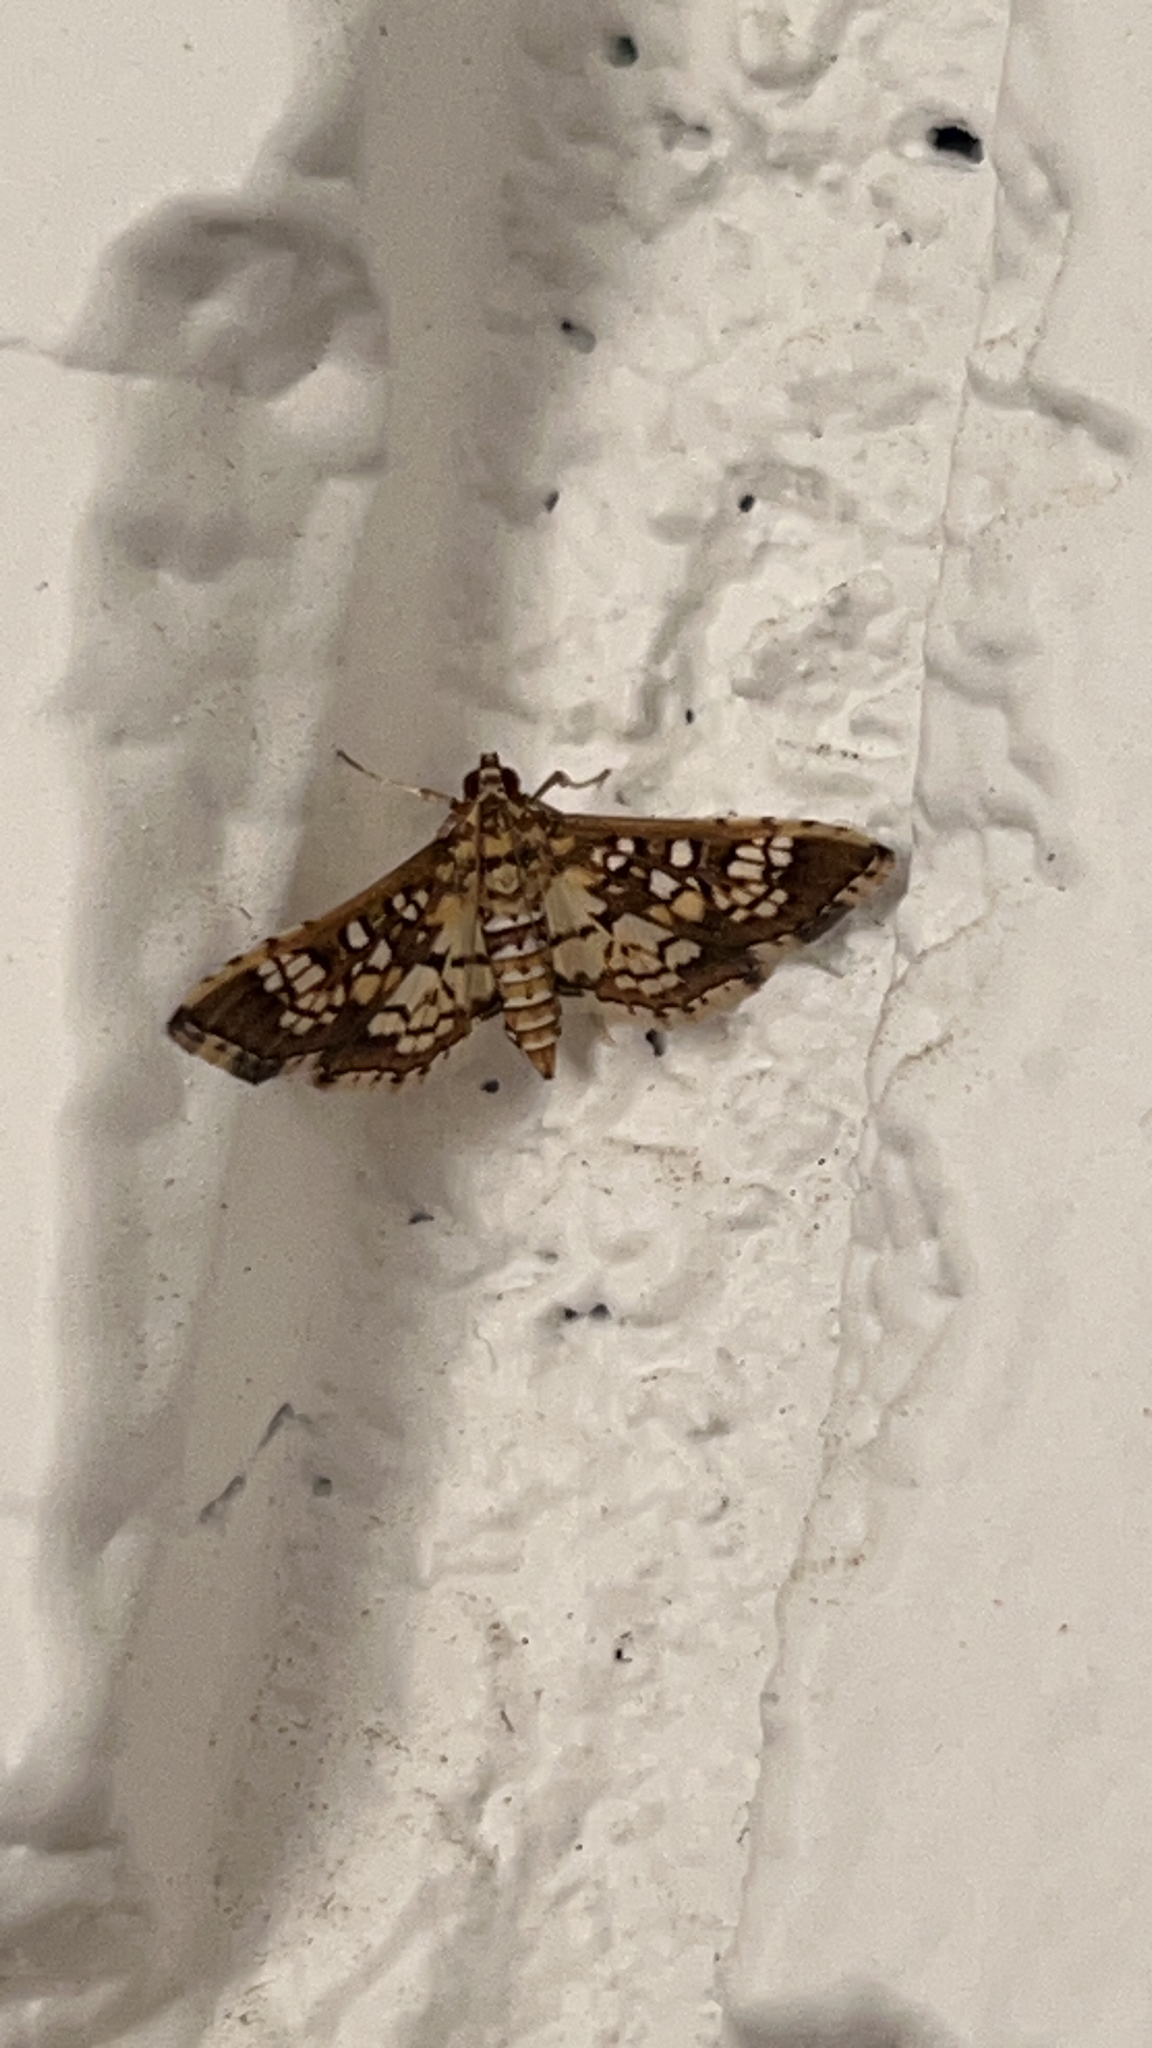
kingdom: Animalia
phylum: Arthropoda
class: Insecta
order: Lepidoptera
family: Crambidae
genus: Samea
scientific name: Samea ecclesialis
